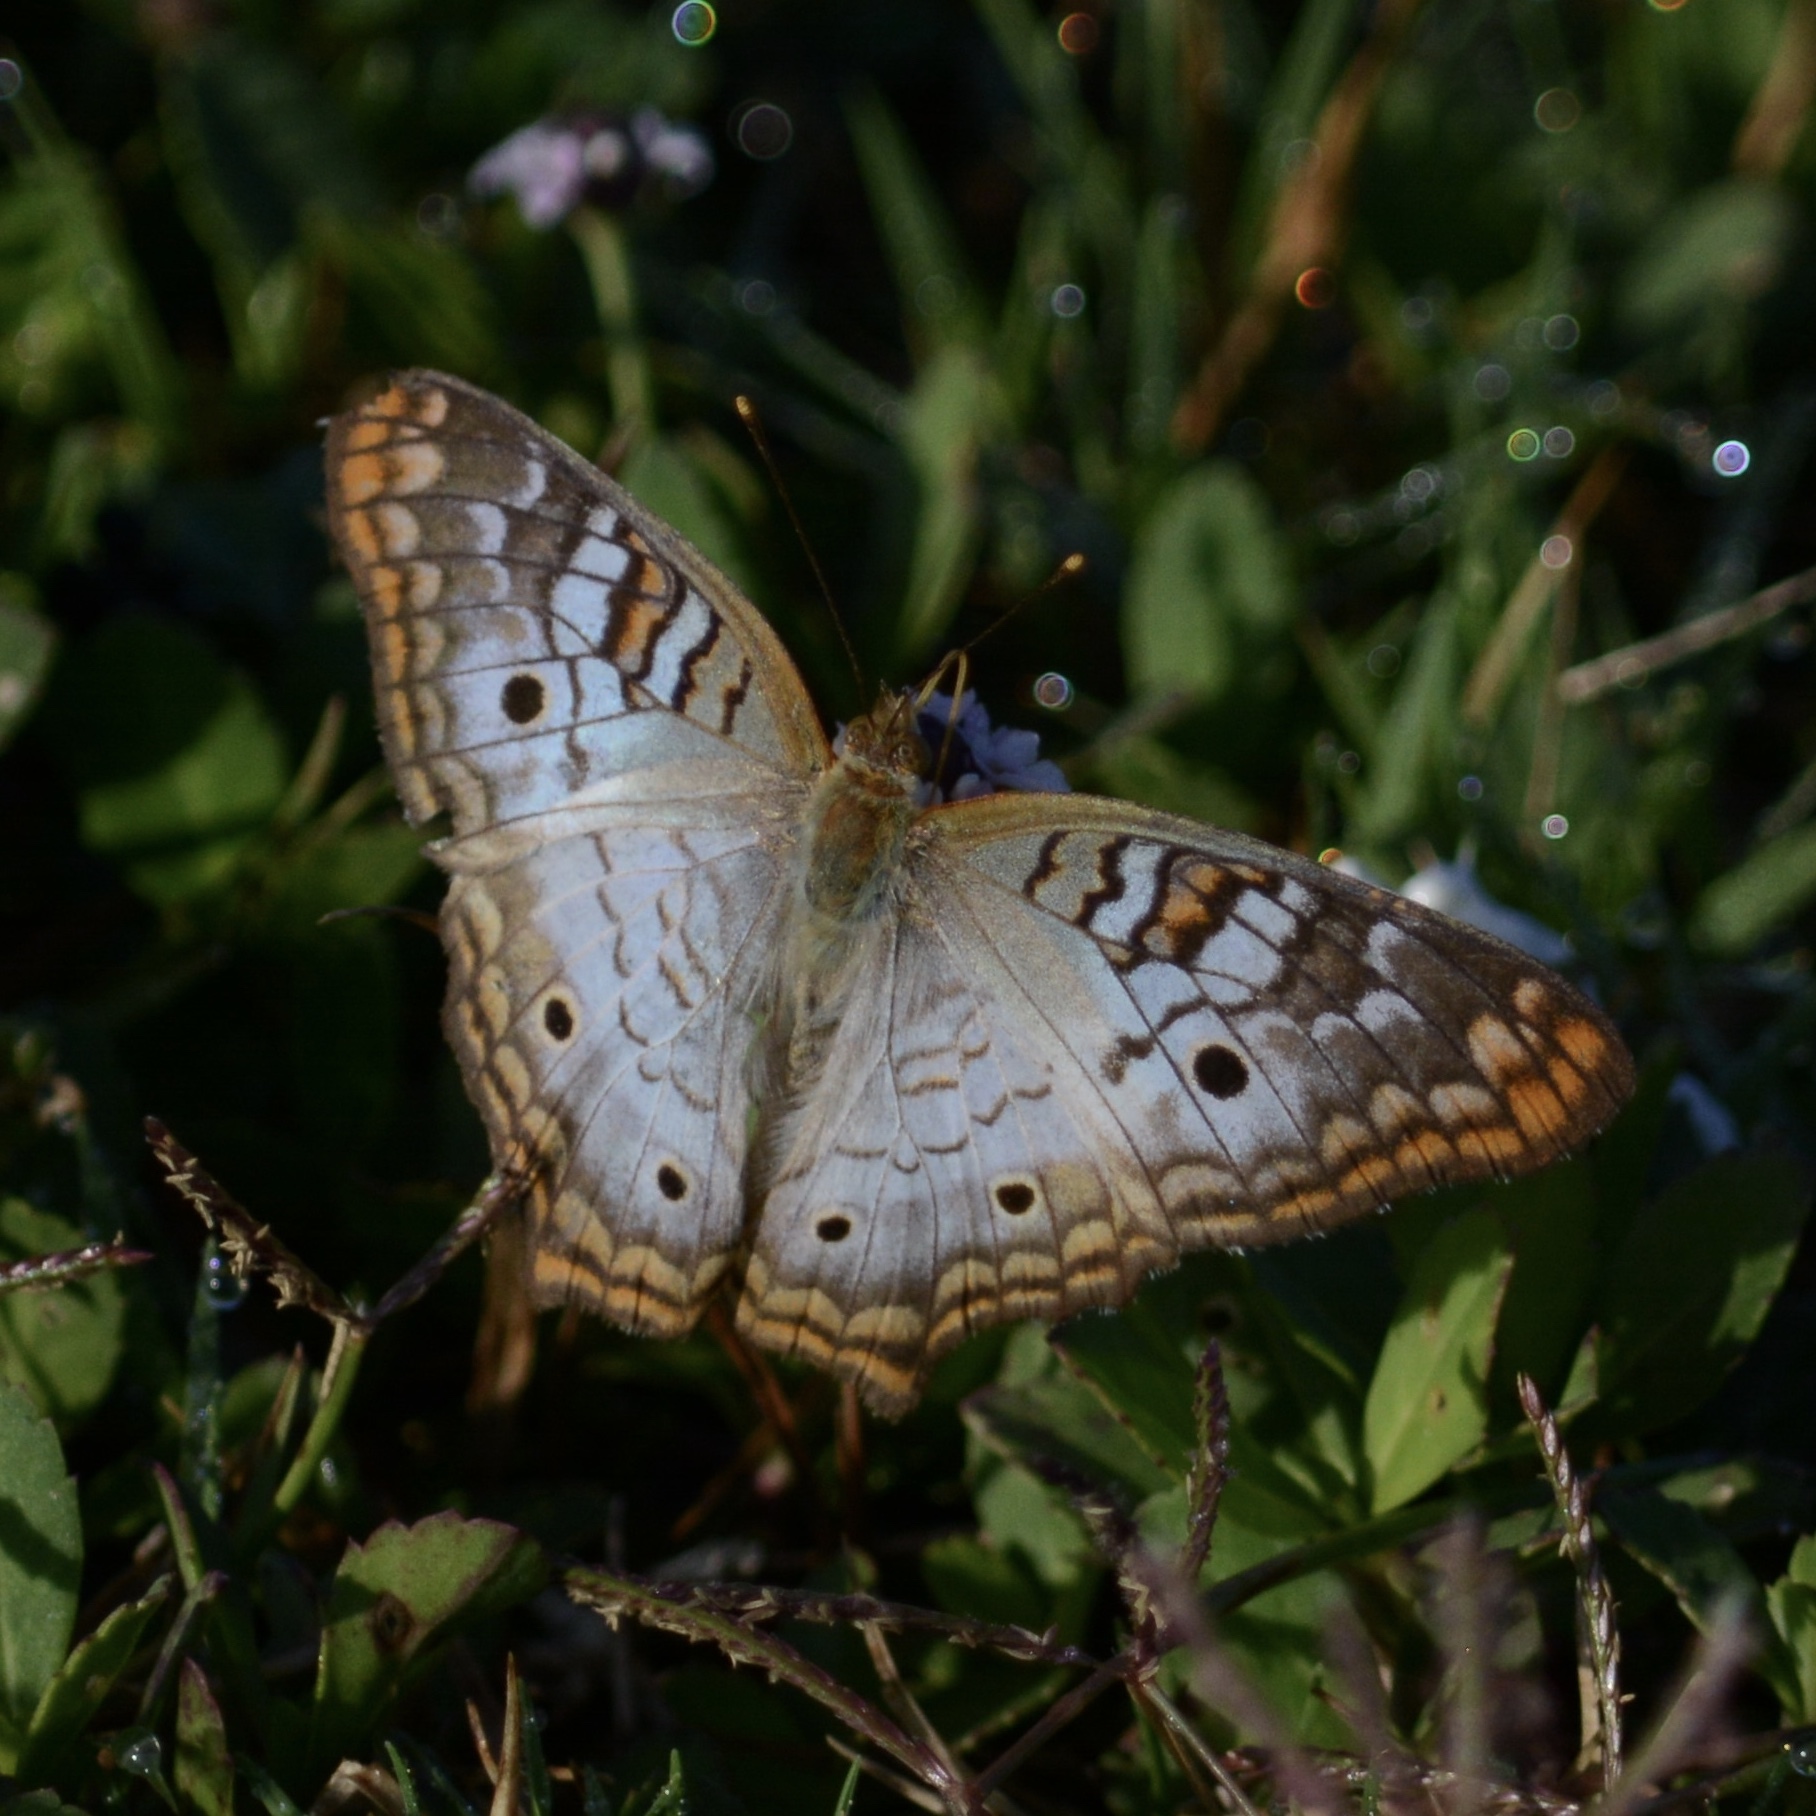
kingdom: Animalia
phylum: Arthropoda
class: Insecta
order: Lepidoptera
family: Nymphalidae
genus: Anartia
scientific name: Anartia jatrophae
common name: White peacock
